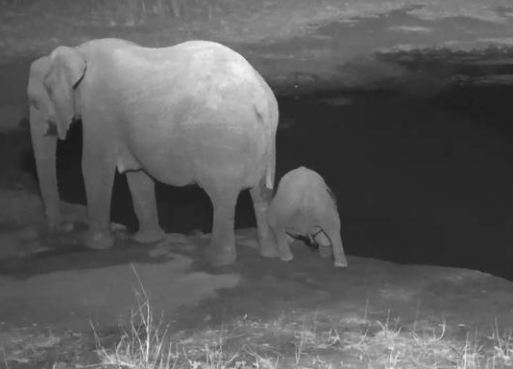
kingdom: Animalia
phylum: Chordata
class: Mammalia
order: Proboscidea
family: Elephantidae
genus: Loxodonta
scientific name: Loxodonta africana
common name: African elephant
